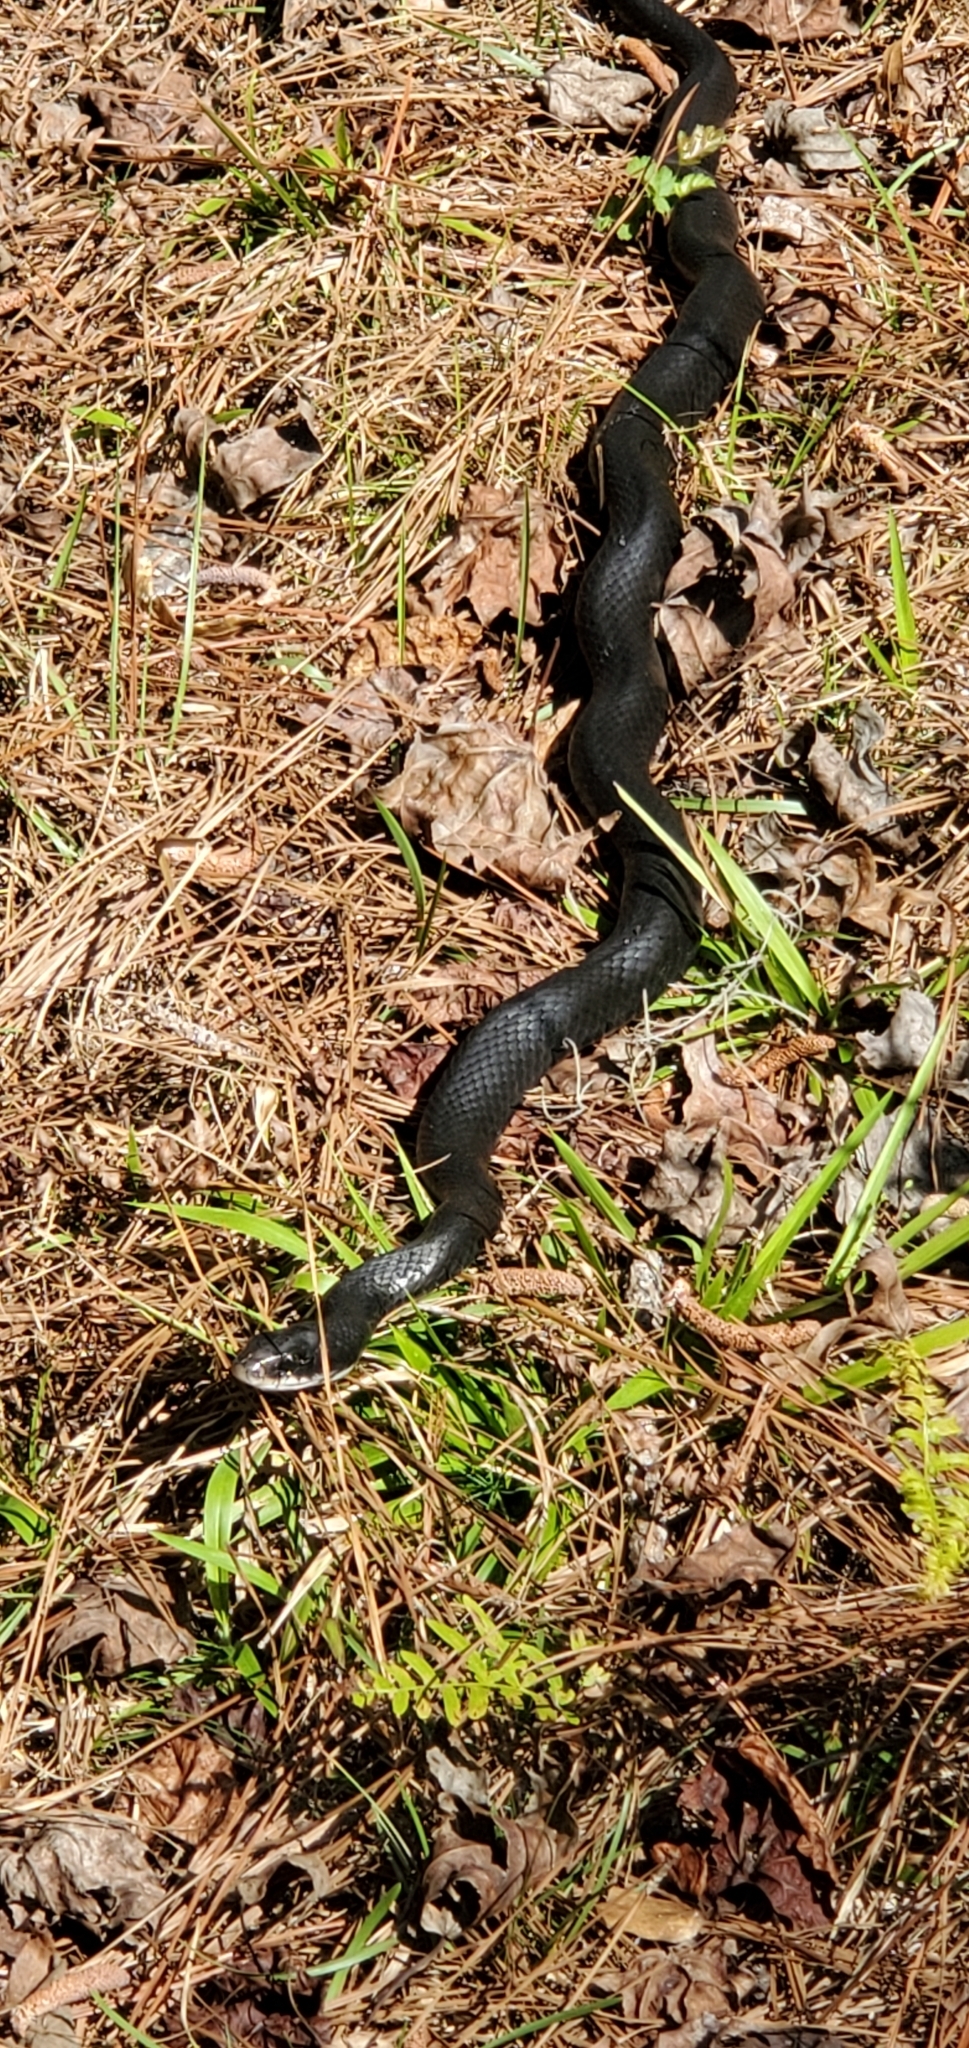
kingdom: Animalia
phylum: Chordata
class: Squamata
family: Colubridae
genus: Coluber
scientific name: Coluber constrictor
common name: Eastern racer
